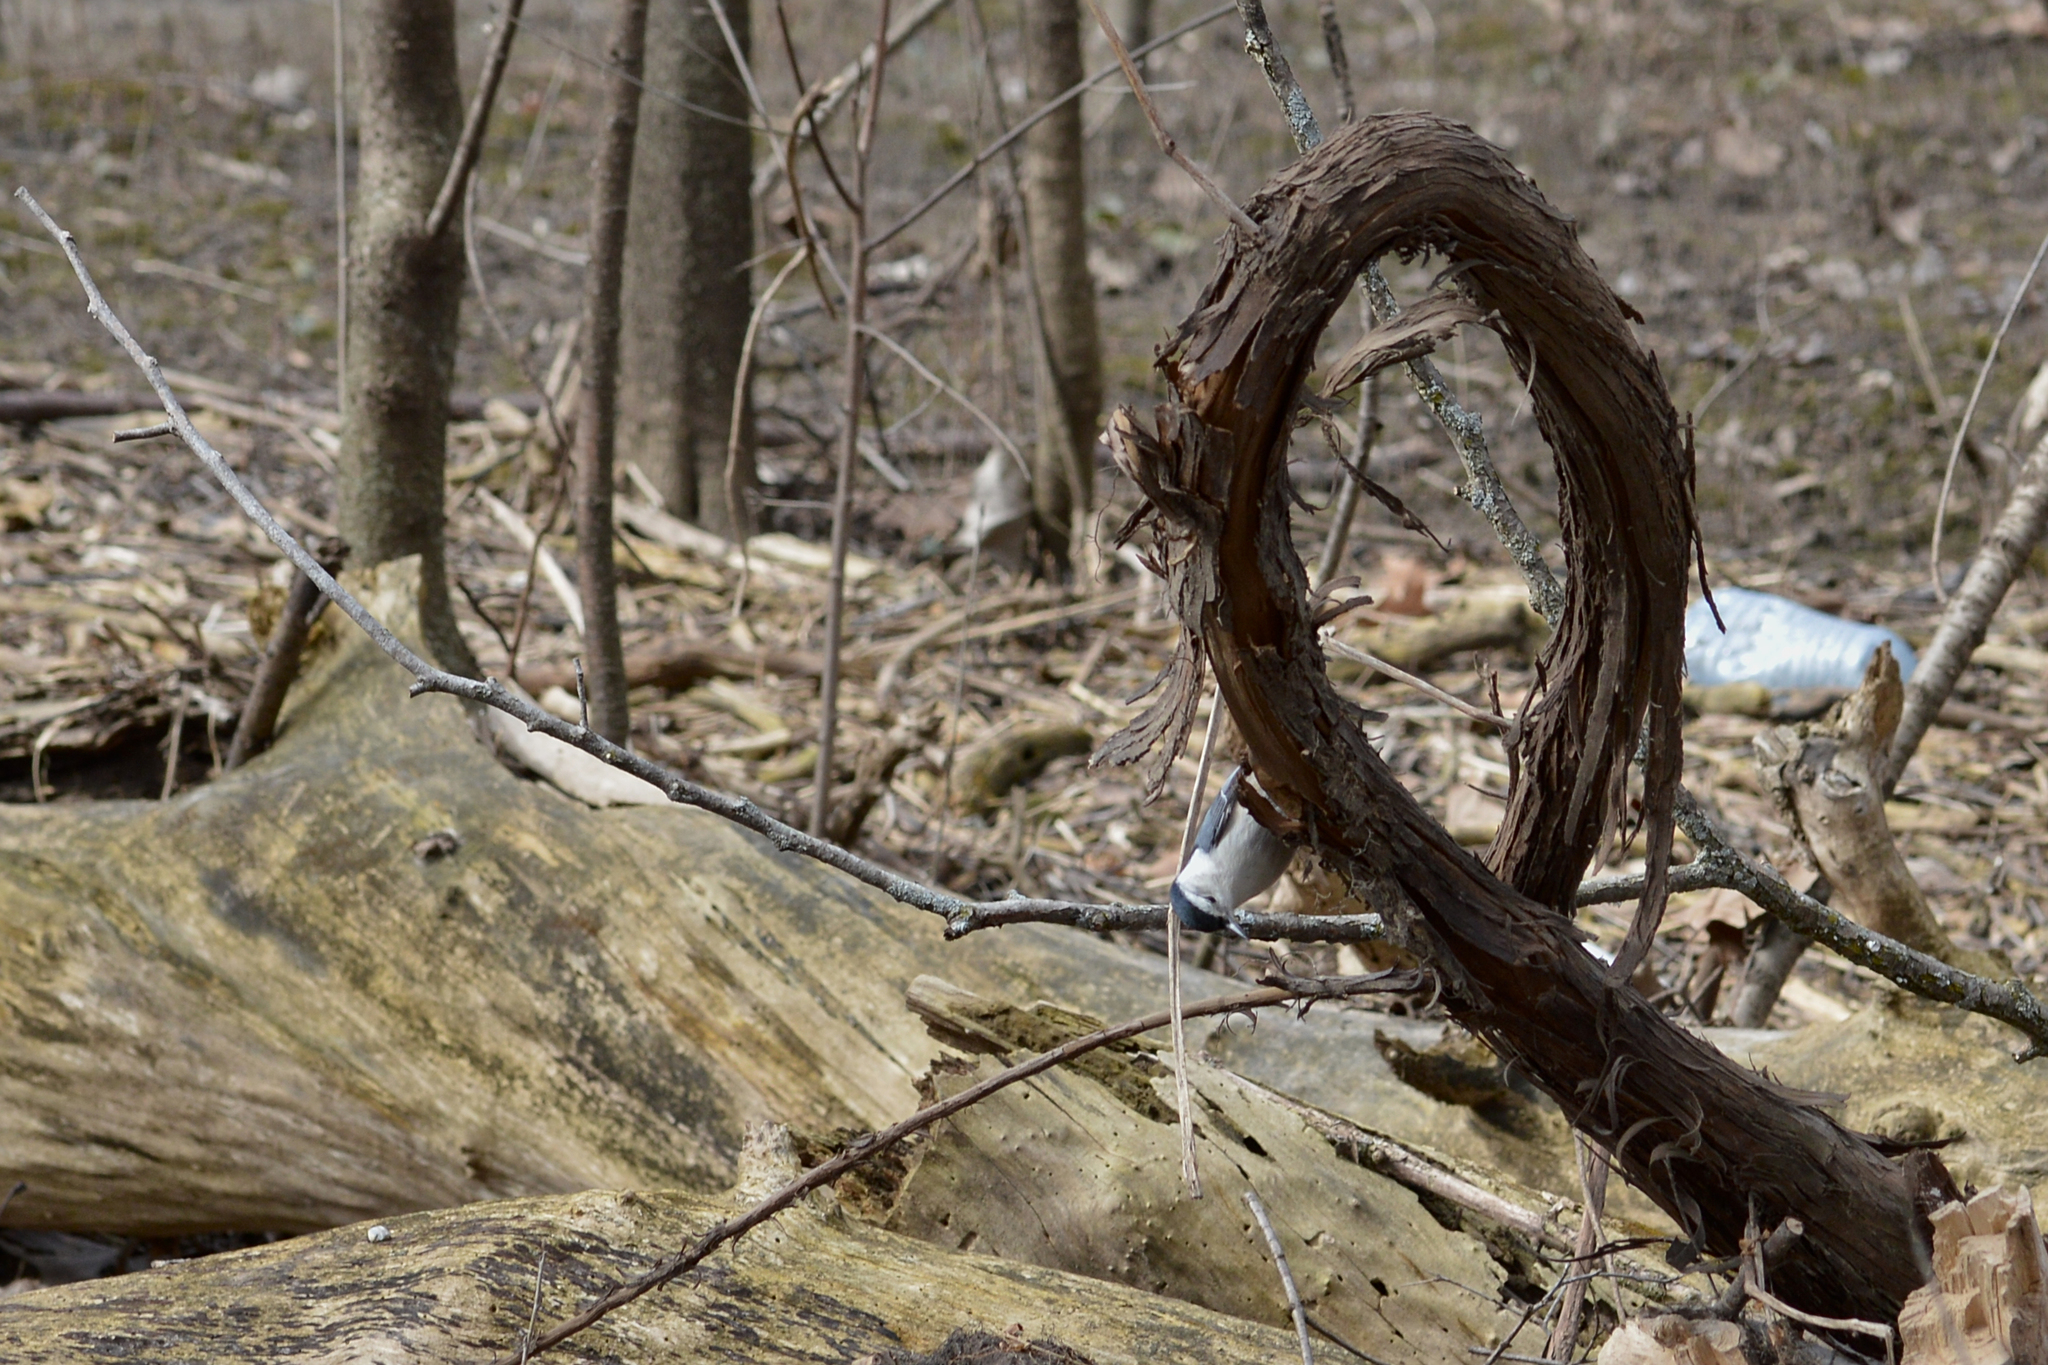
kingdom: Animalia
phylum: Chordata
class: Aves
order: Passeriformes
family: Sittidae
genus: Sitta
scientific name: Sitta carolinensis
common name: White-breasted nuthatch
